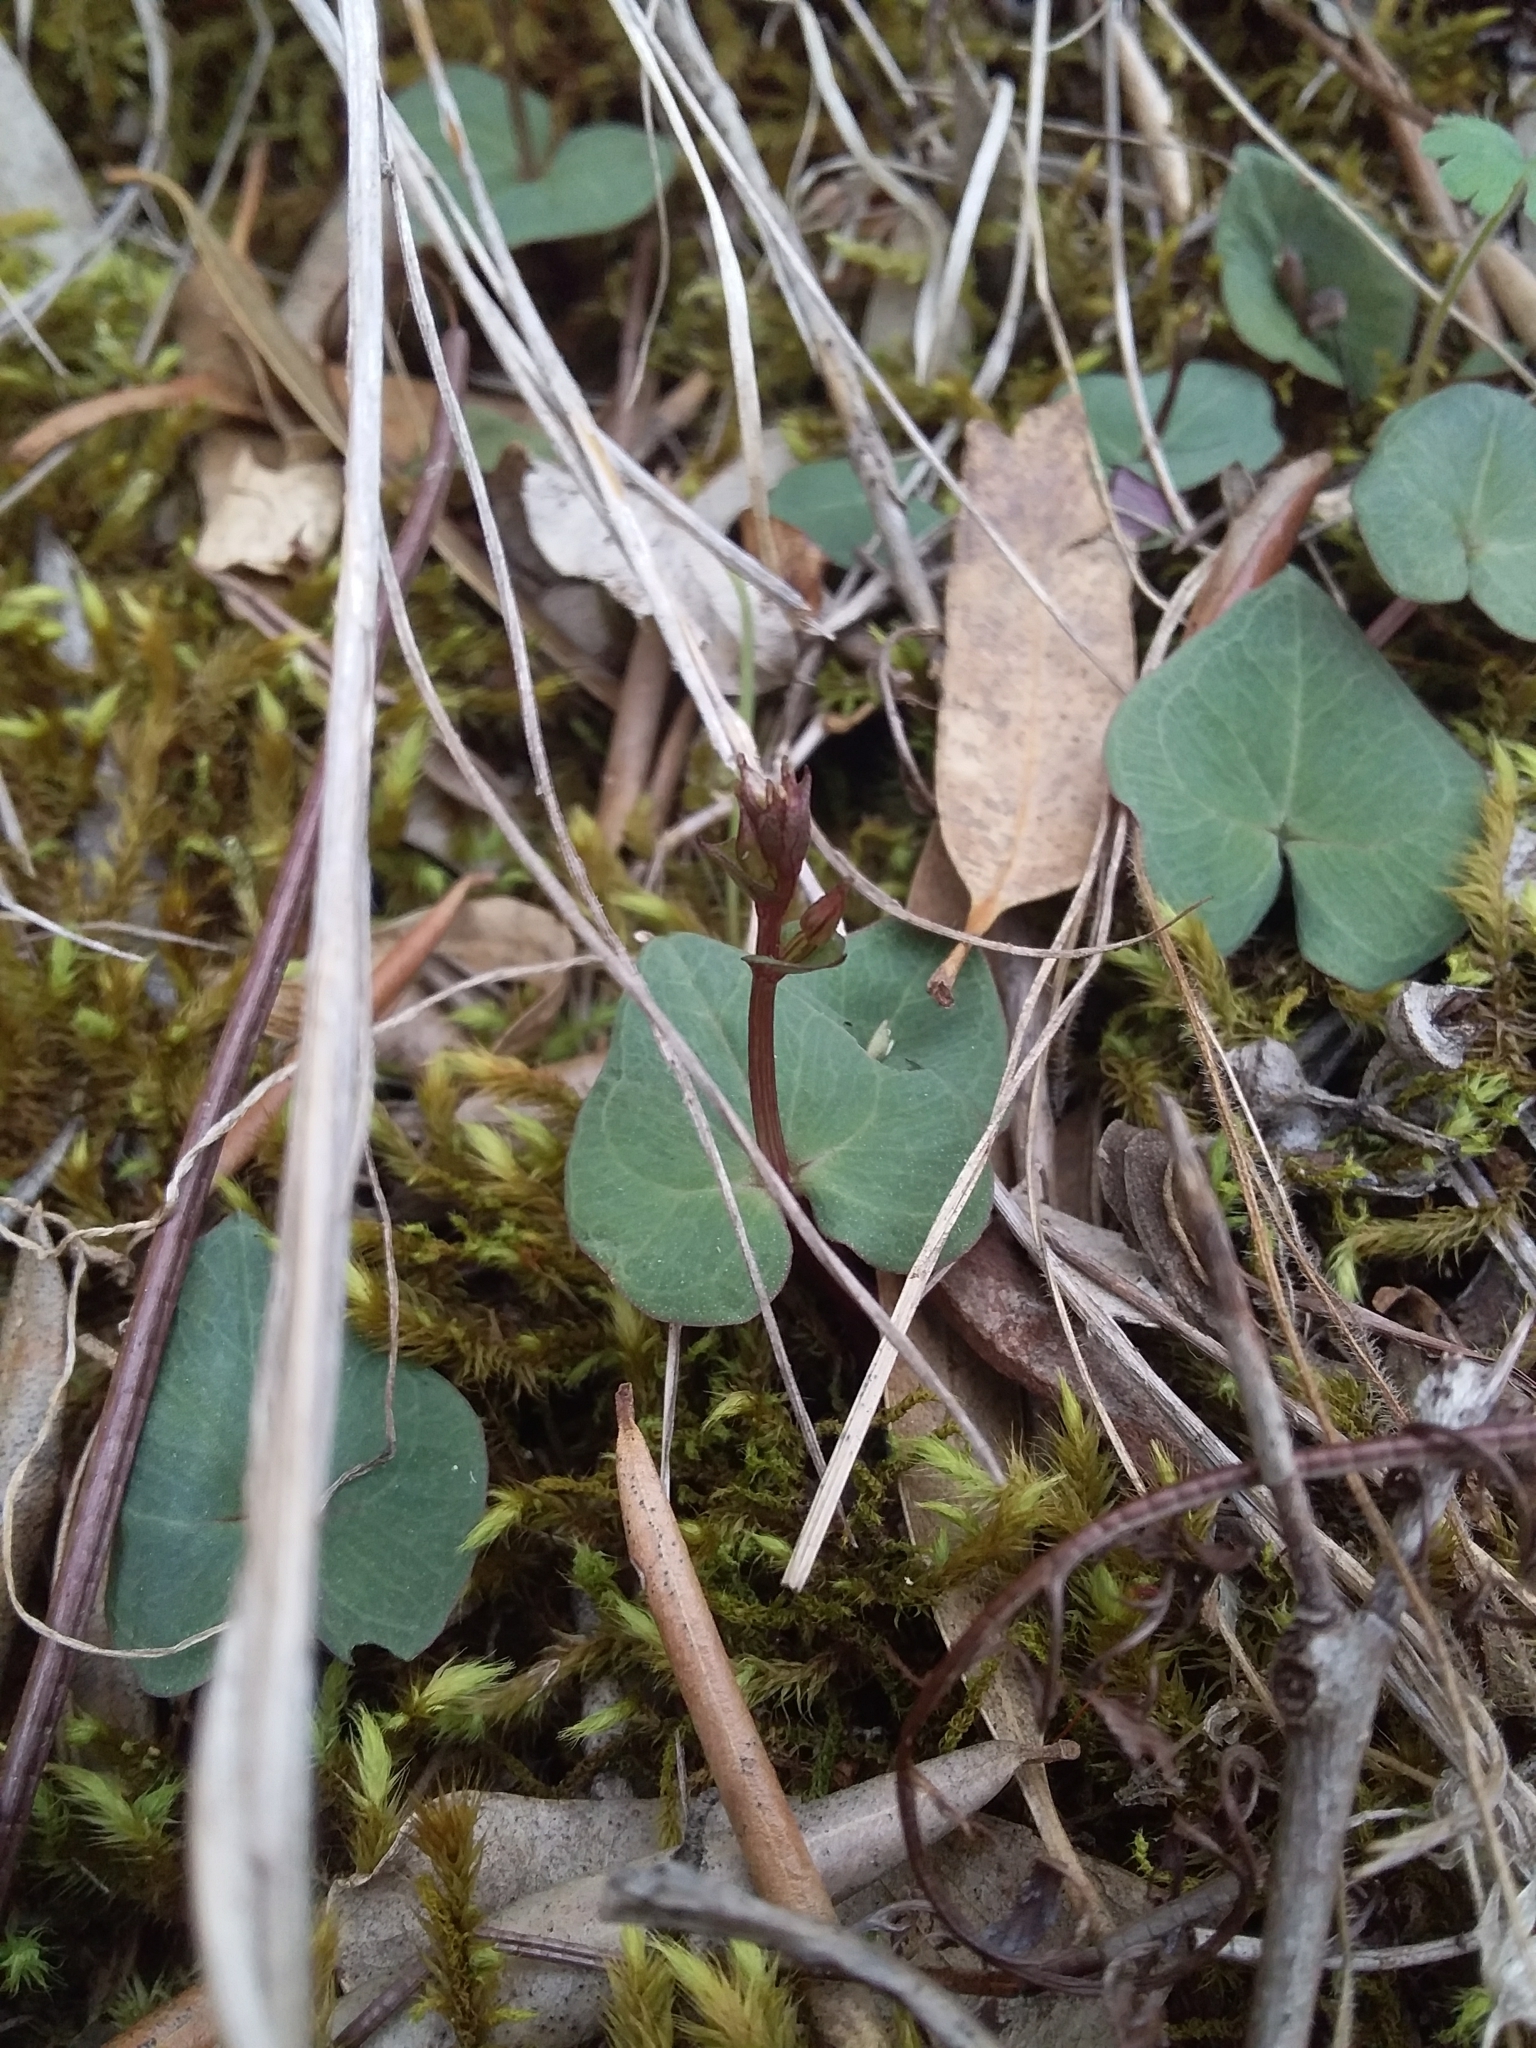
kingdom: Plantae
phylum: Tracheophyta
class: Liliopsida
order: Asparagales
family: Orchidaceae
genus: Acianthus
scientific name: Acianthus pusillus
